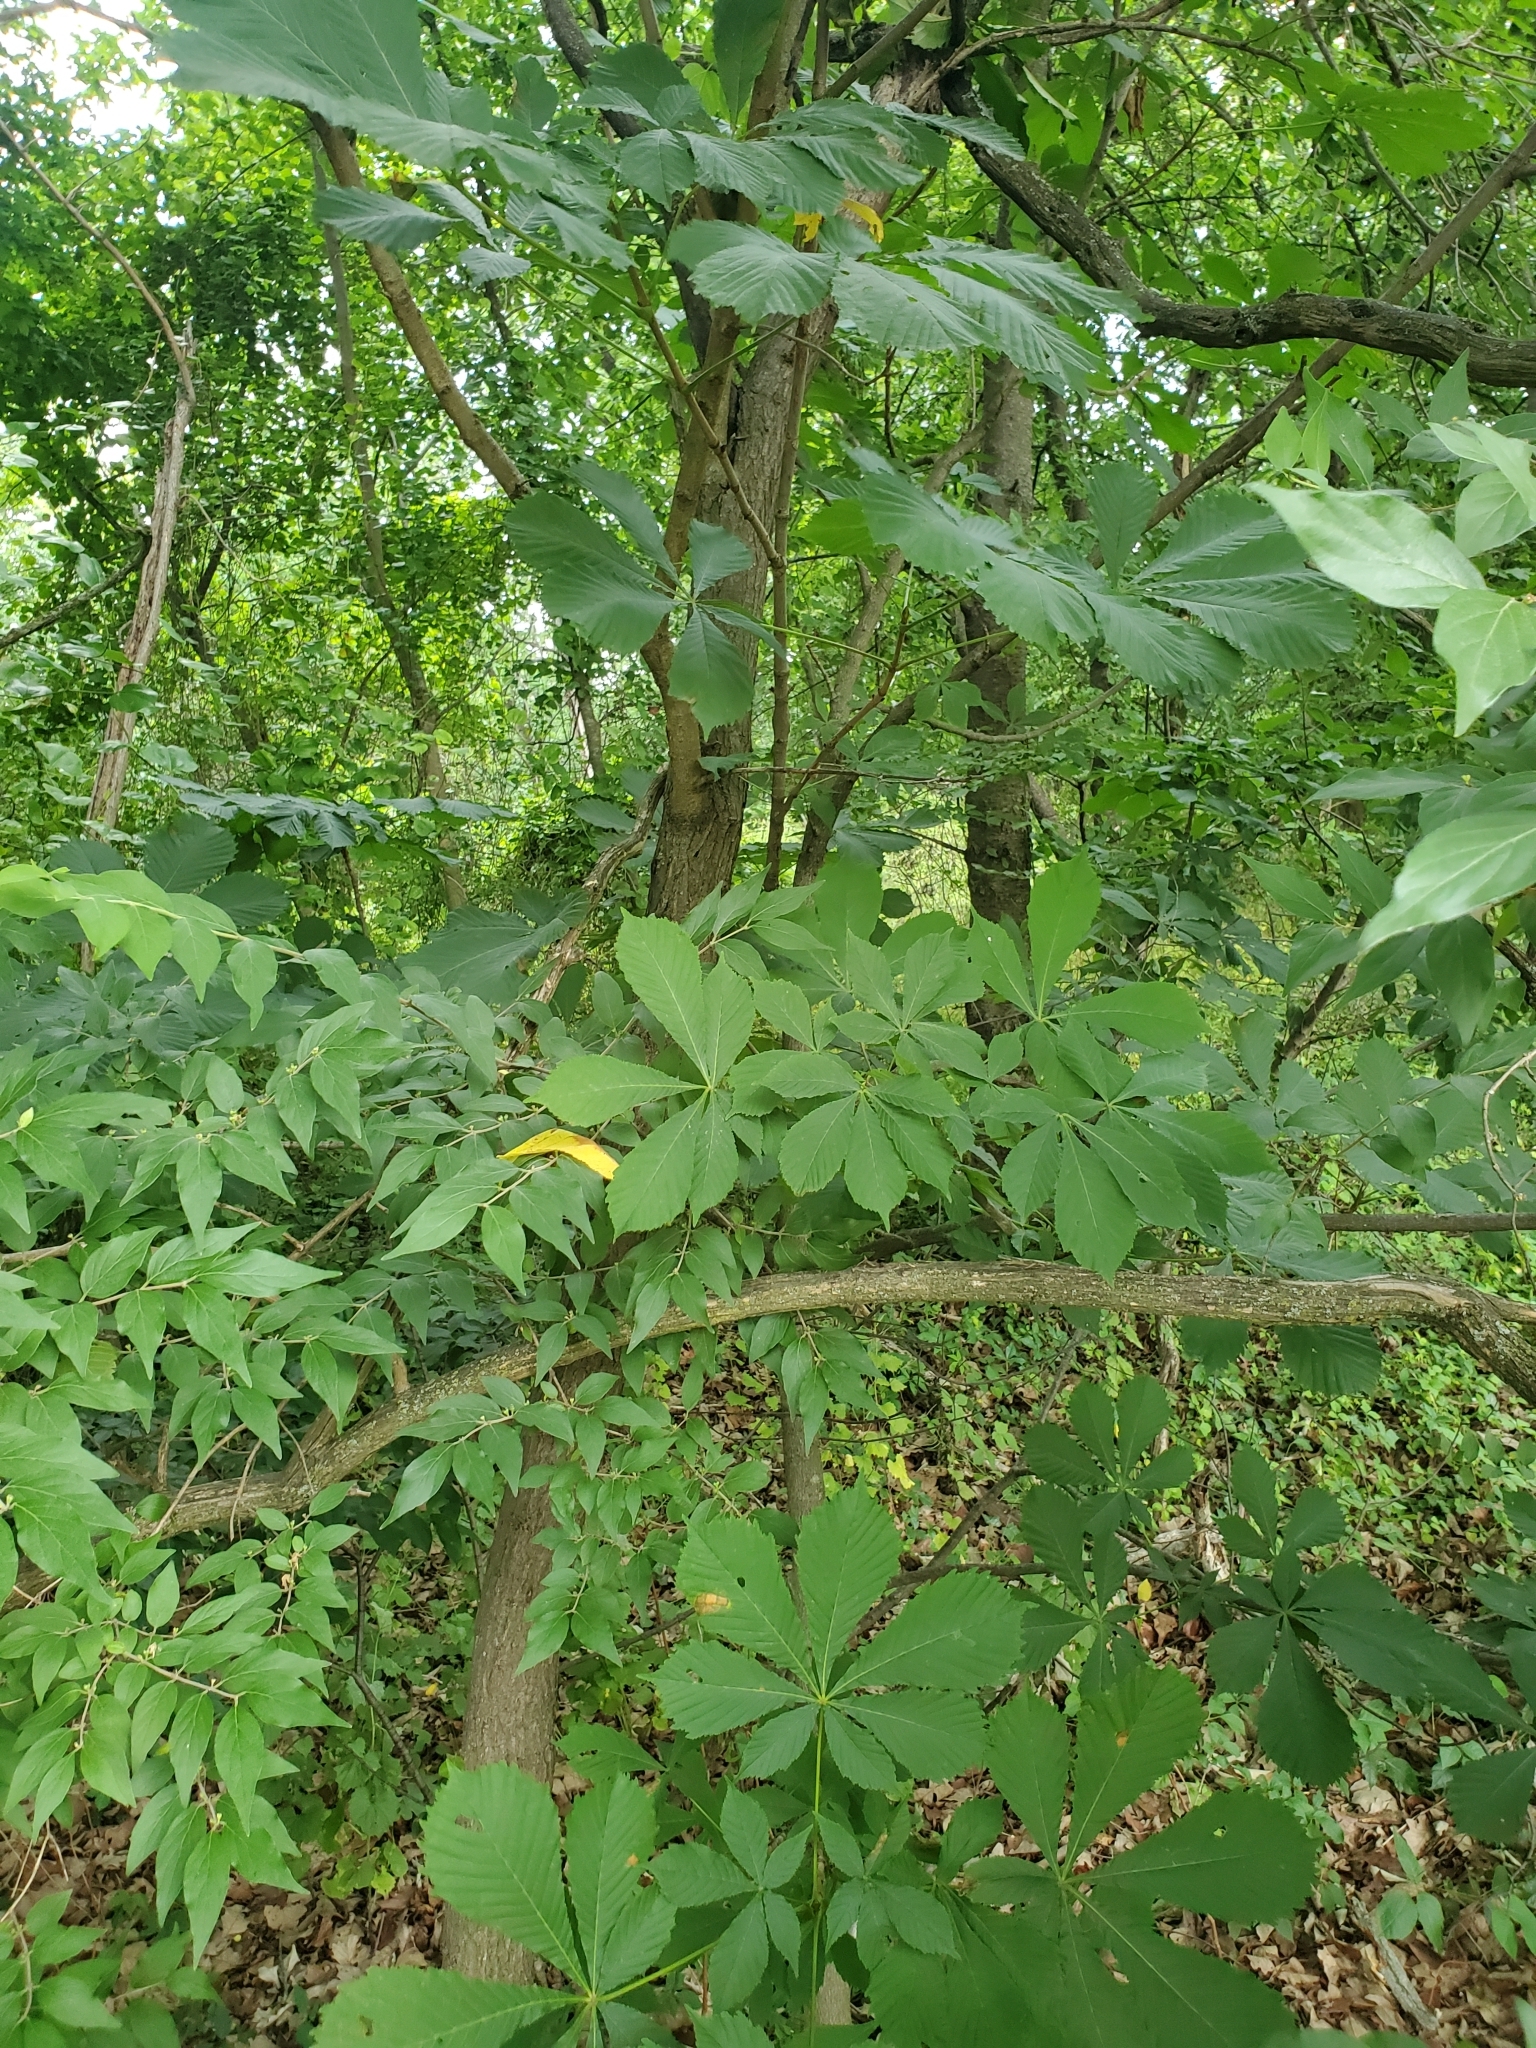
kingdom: Plantae
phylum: Tracheophyta
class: Magnoliopsida
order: Sapindales
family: Sapindaceae
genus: Aesculus
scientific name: Aesculus hippocastanum
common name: Horse-chestnut
